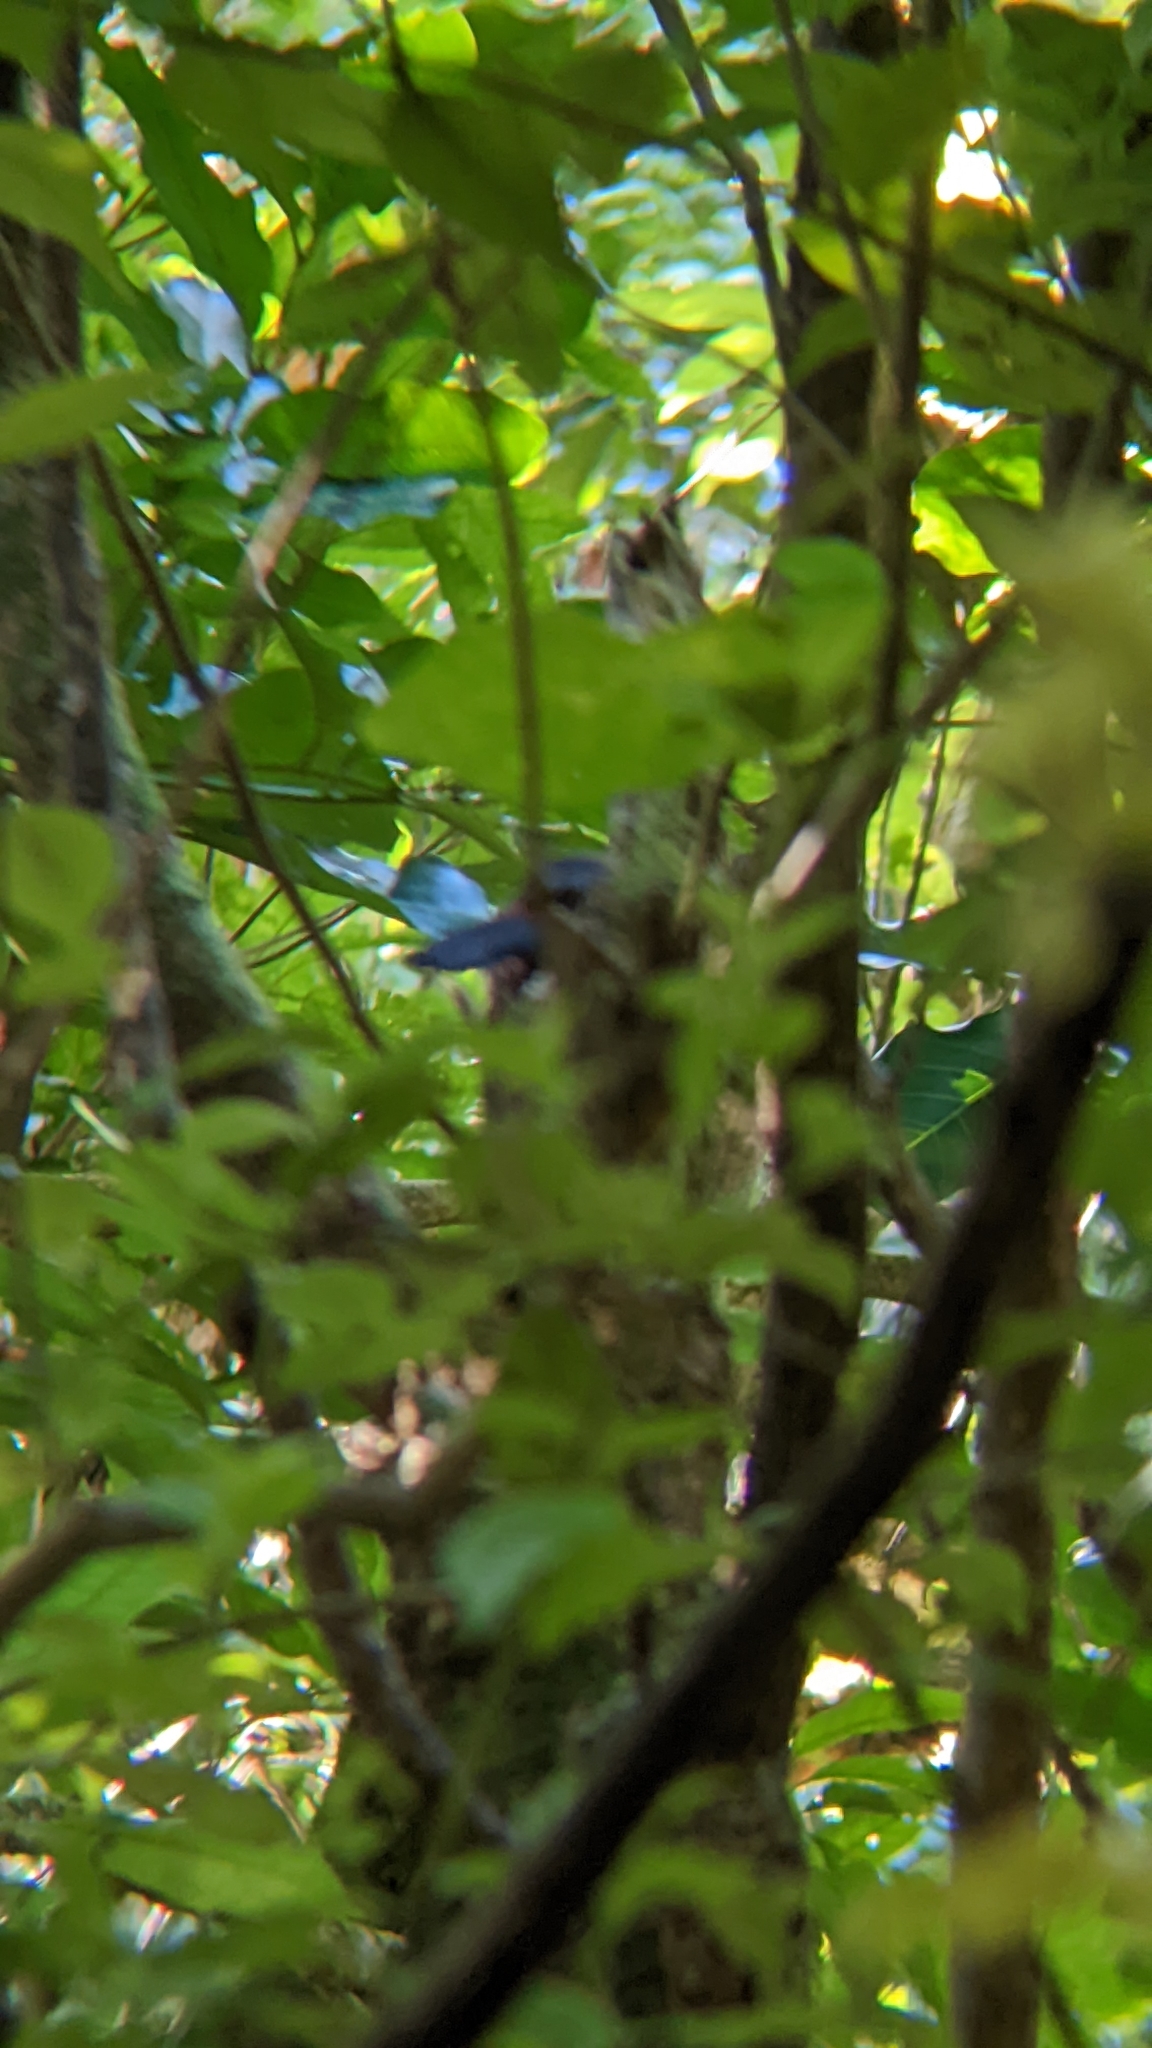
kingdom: Animalia
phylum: Chordata
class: Aves
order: Passeriformes
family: Callaeatidae
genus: Philesturnus
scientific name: Philesturnus carunculatus
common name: South island saddleback
